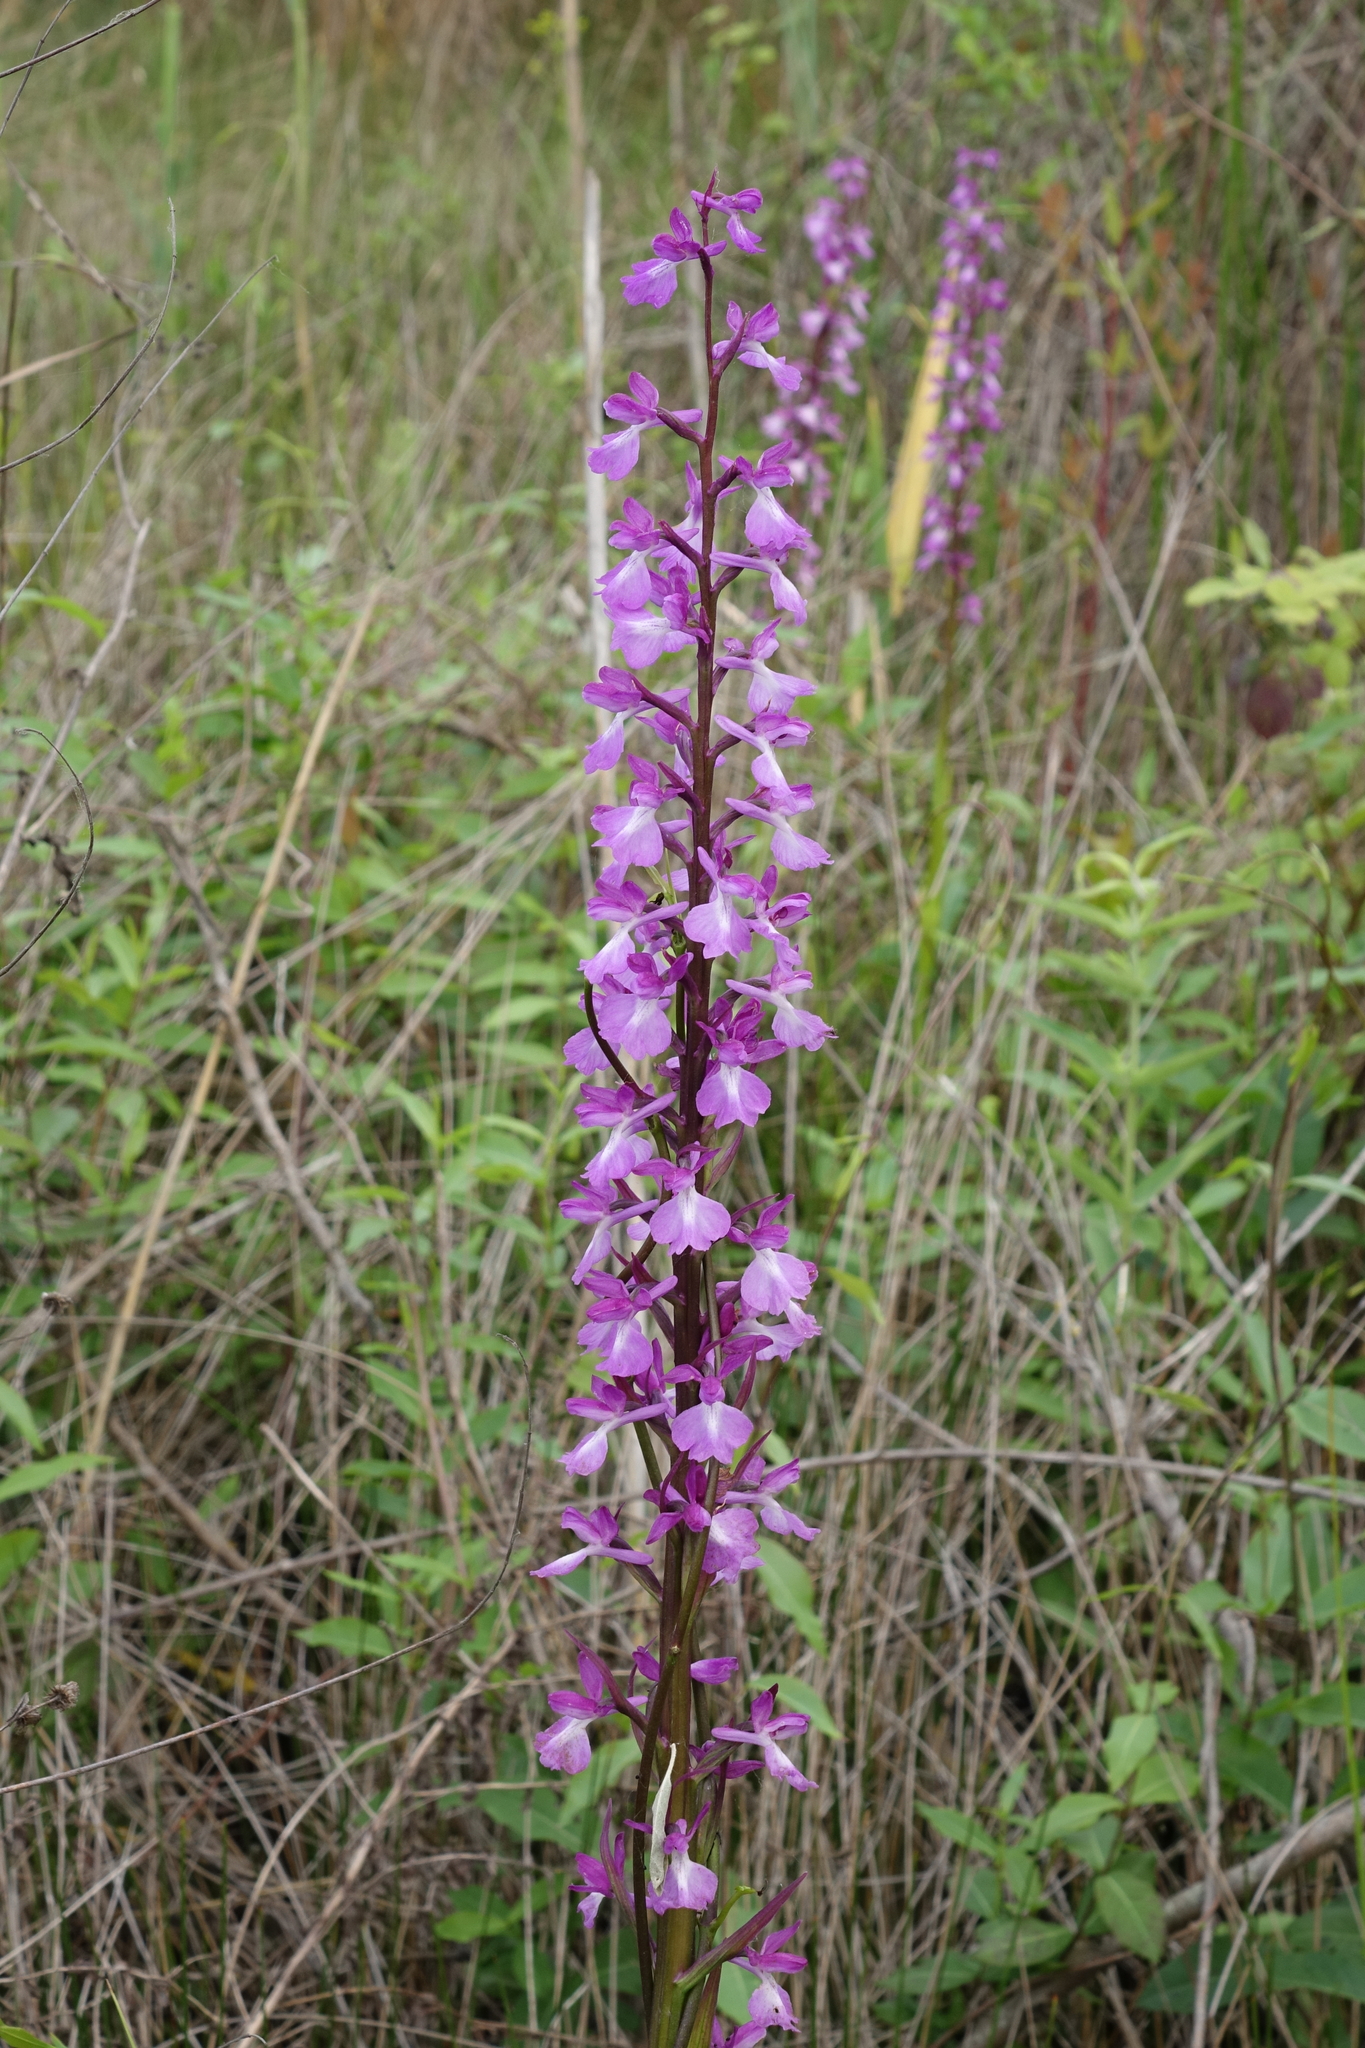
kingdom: Plantae
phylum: Tracheophyta
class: Liliopsida
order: Asparagales
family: Orchidaceae
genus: Anacamptis
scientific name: Anacamptis palustris
